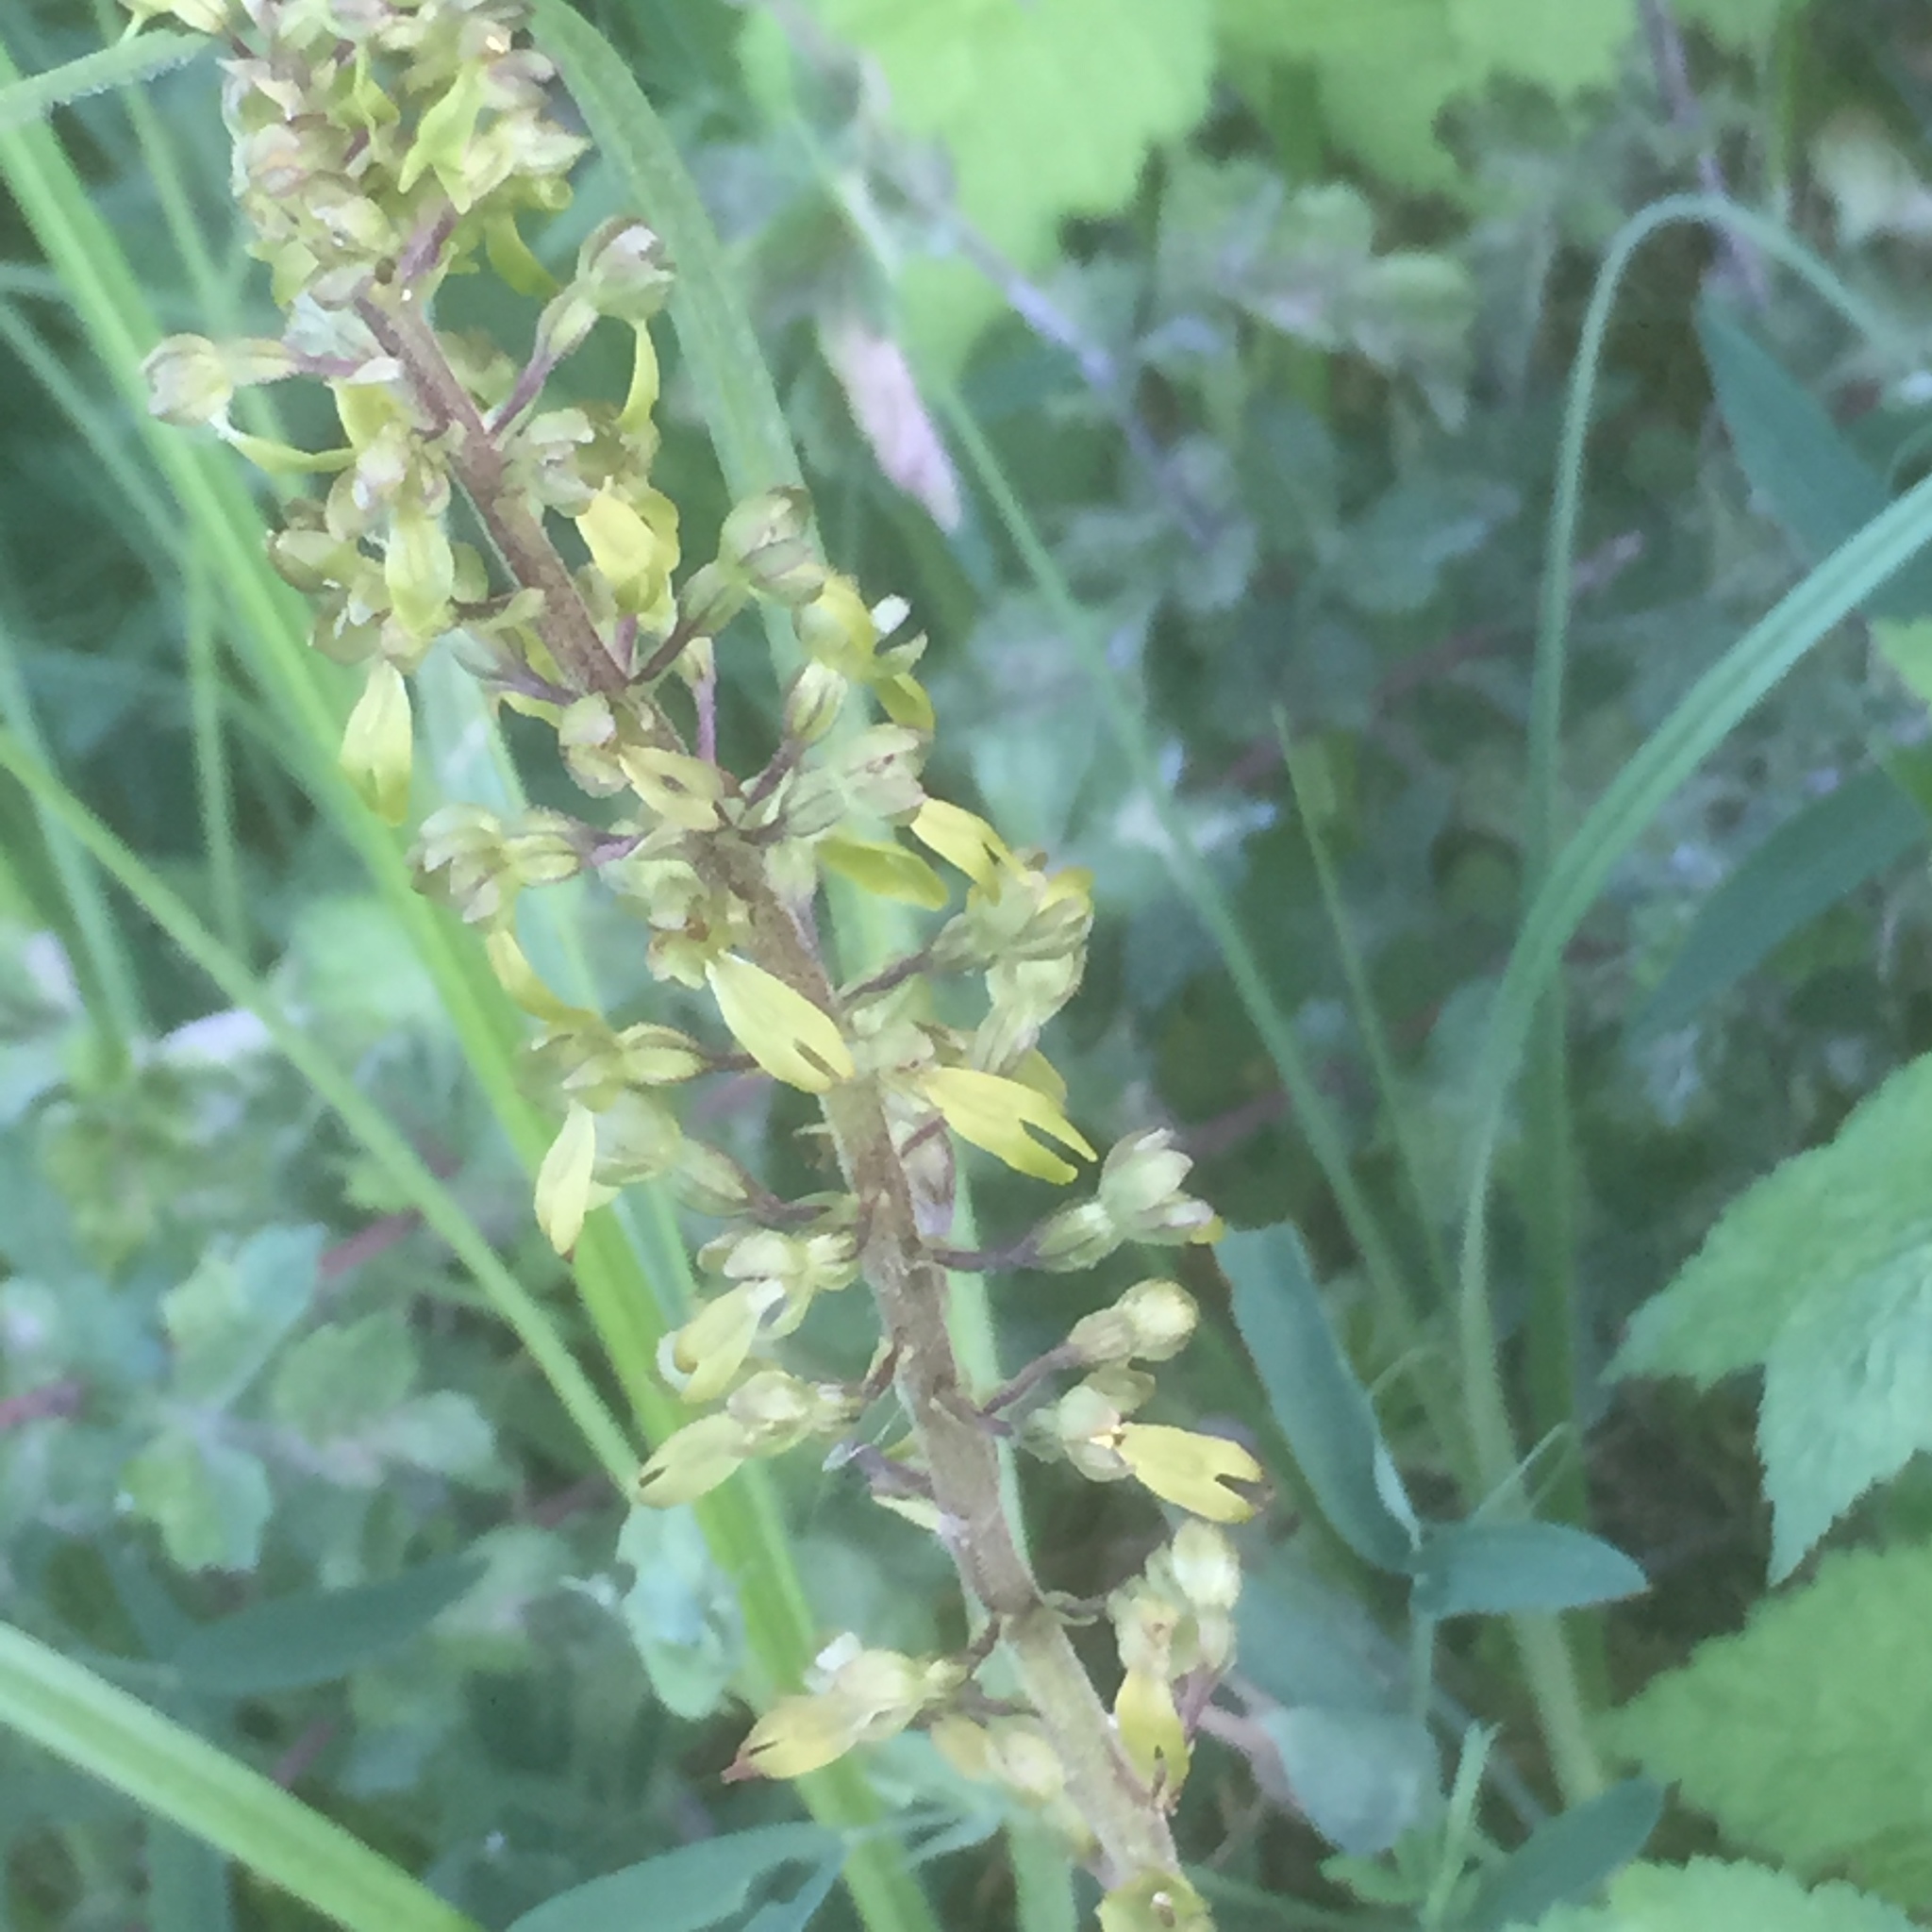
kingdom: Plantae
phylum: Tracheophyta
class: Liliopsida
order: Asparagales
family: Orchidaceae
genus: Neottia
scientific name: Neottia ovata
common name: Common twayblade
